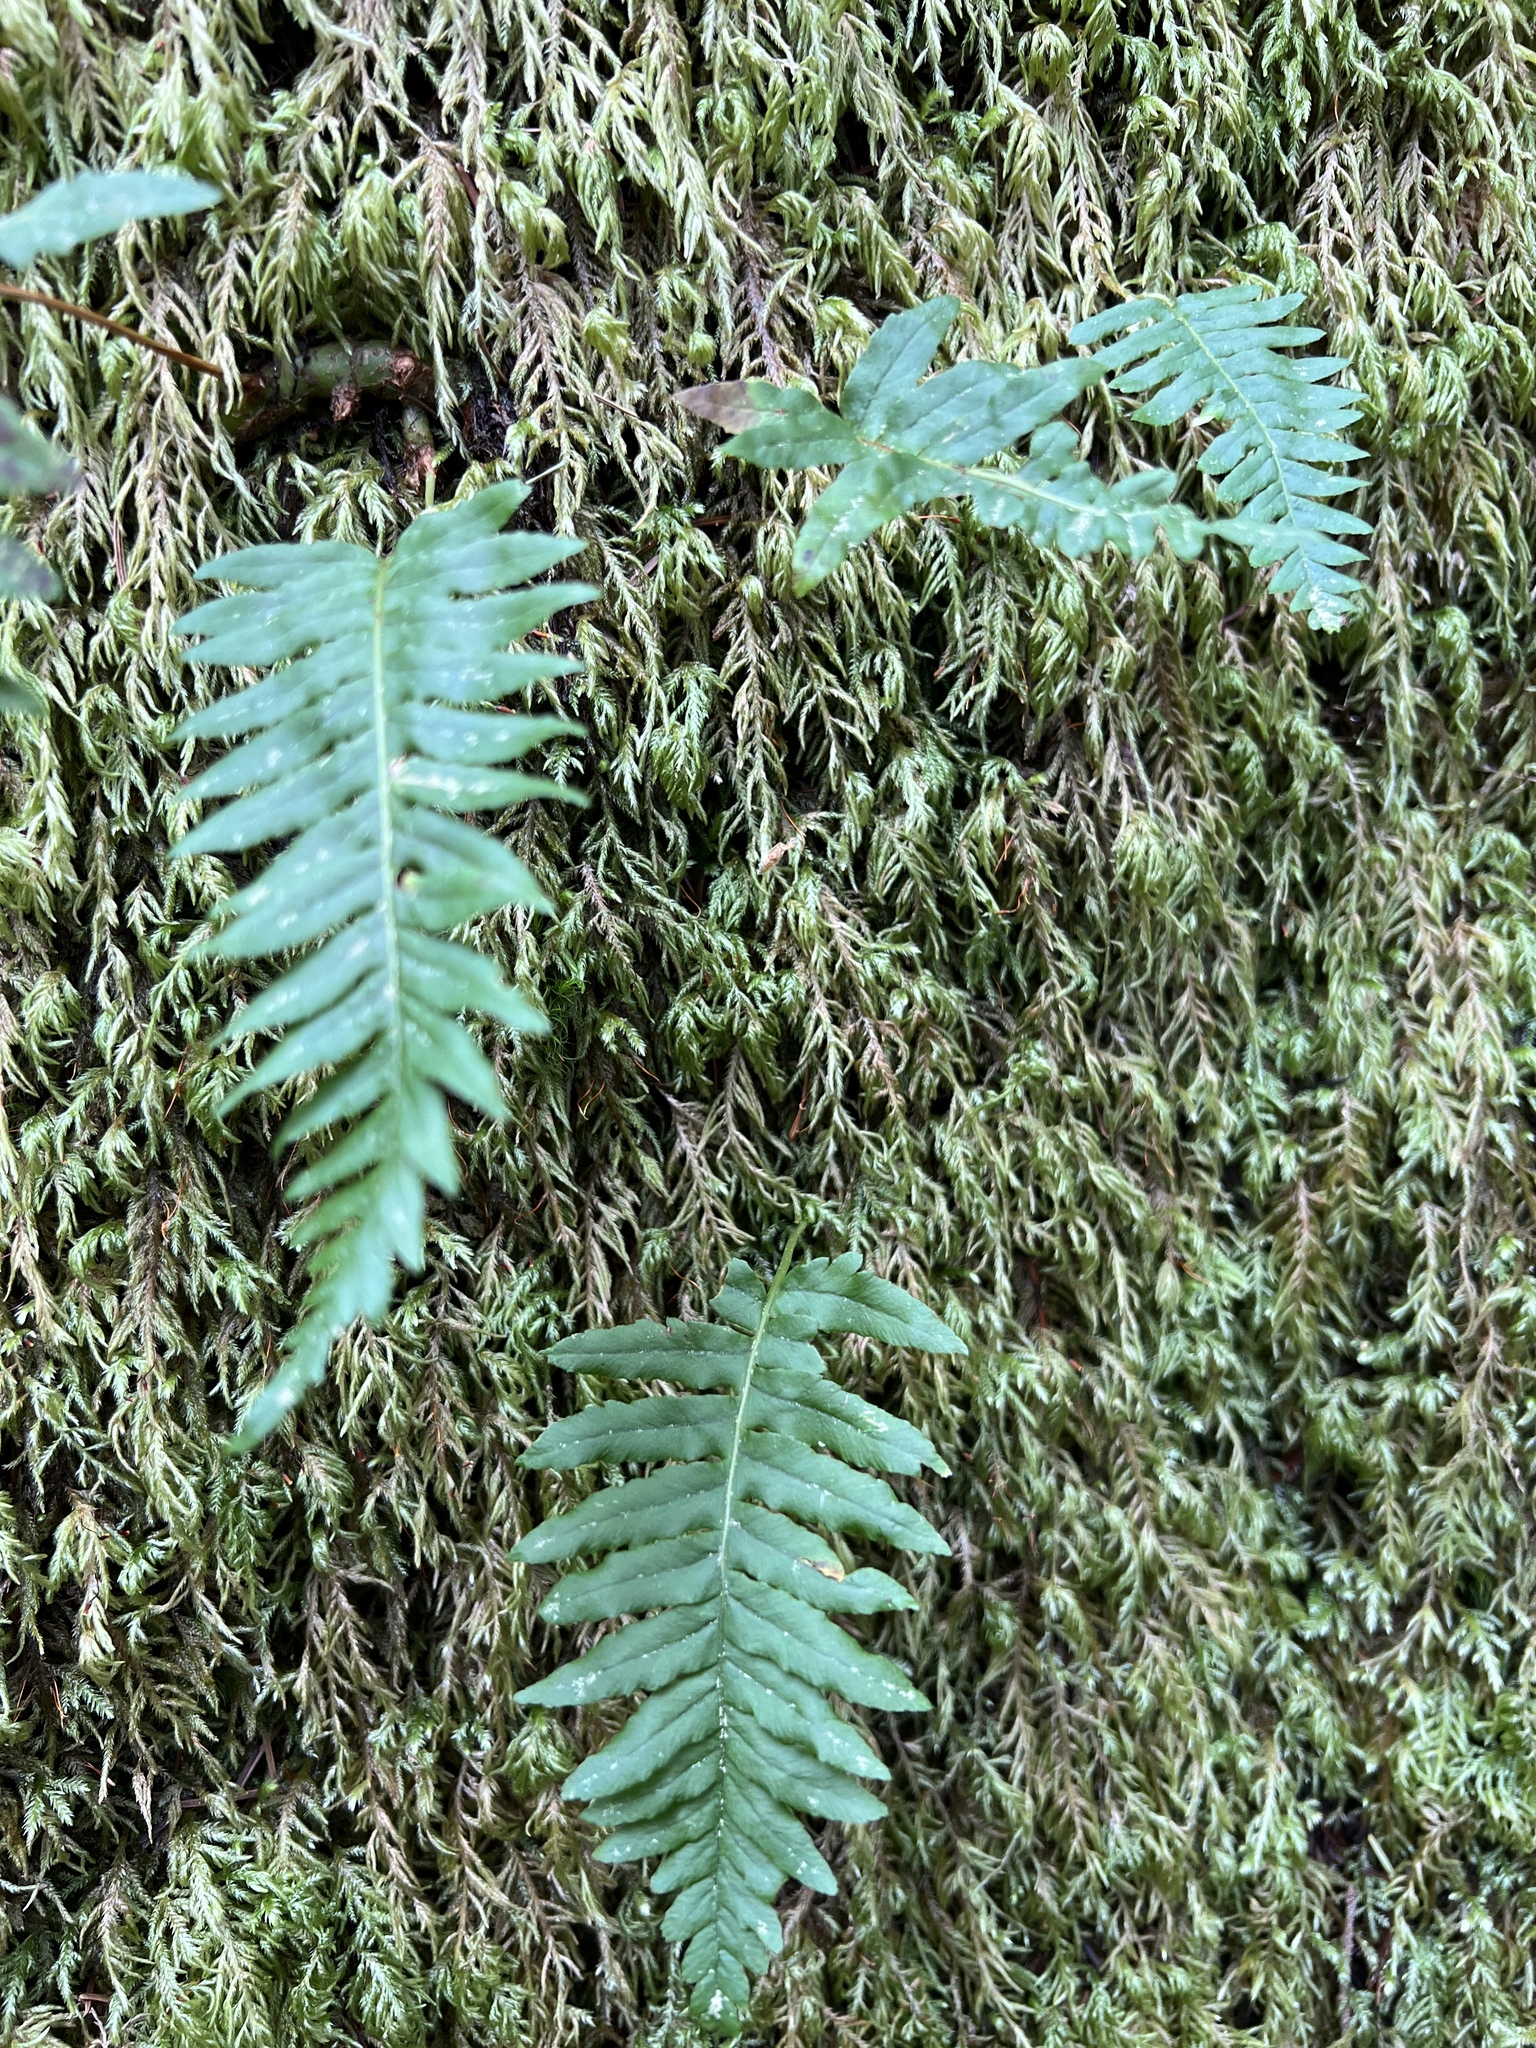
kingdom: Plantae
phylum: Tracheophyta
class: Polypodiopsida
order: Polypodiales
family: Polypodiaceae
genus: Polypodium
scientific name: Polypodium glycyrrhiza
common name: Licorice fern
